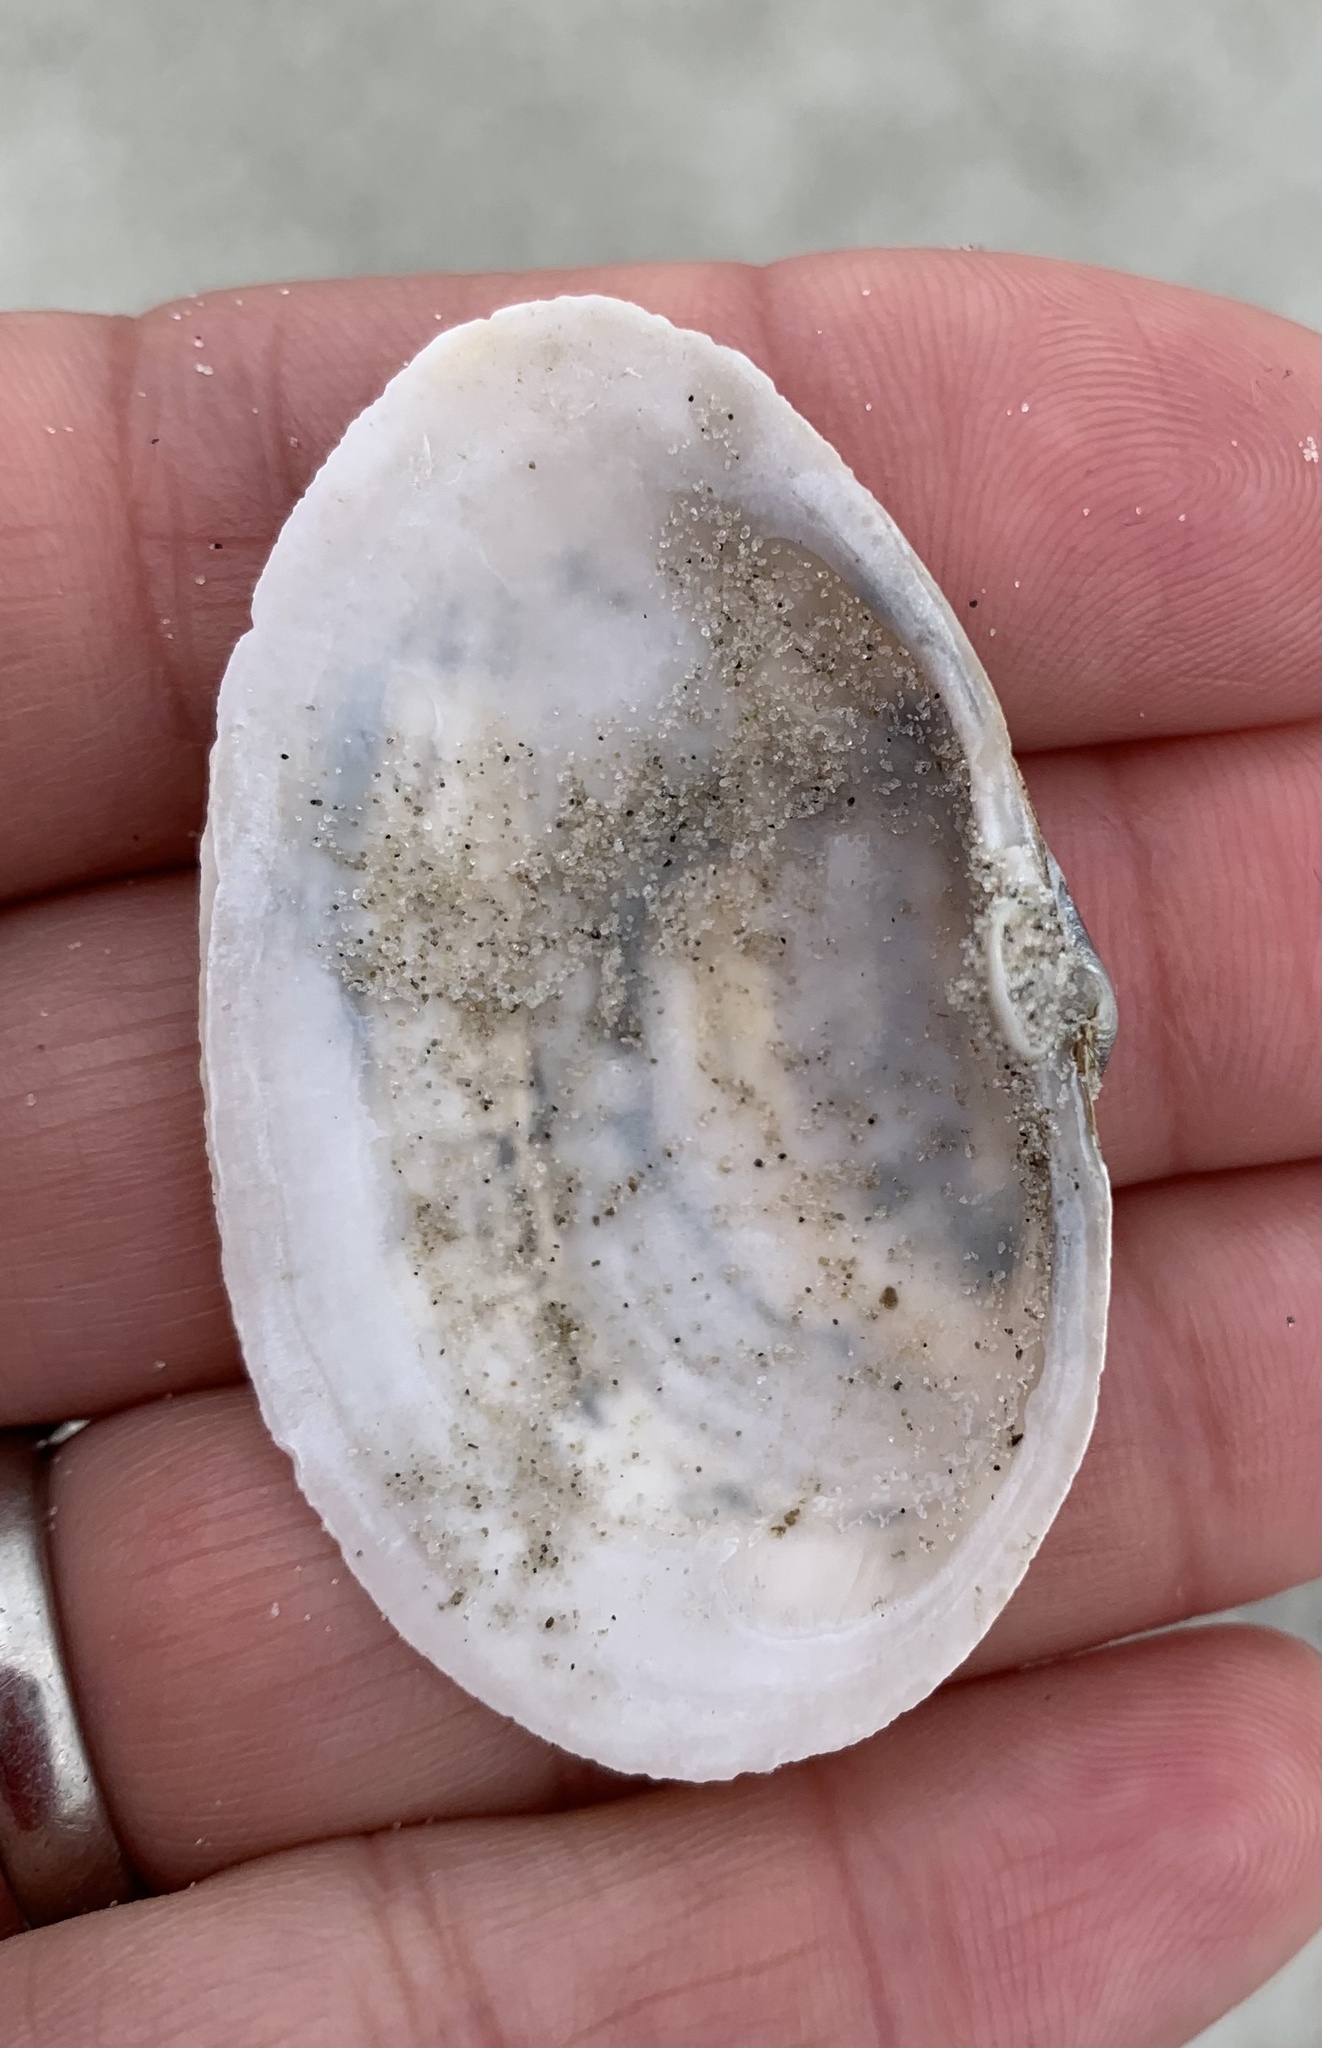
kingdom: Animalia
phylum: Mollusca
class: Bivalvia
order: Myida
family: Myidae
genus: Mya
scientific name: Mya arenaria
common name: Soft-shelled clam
